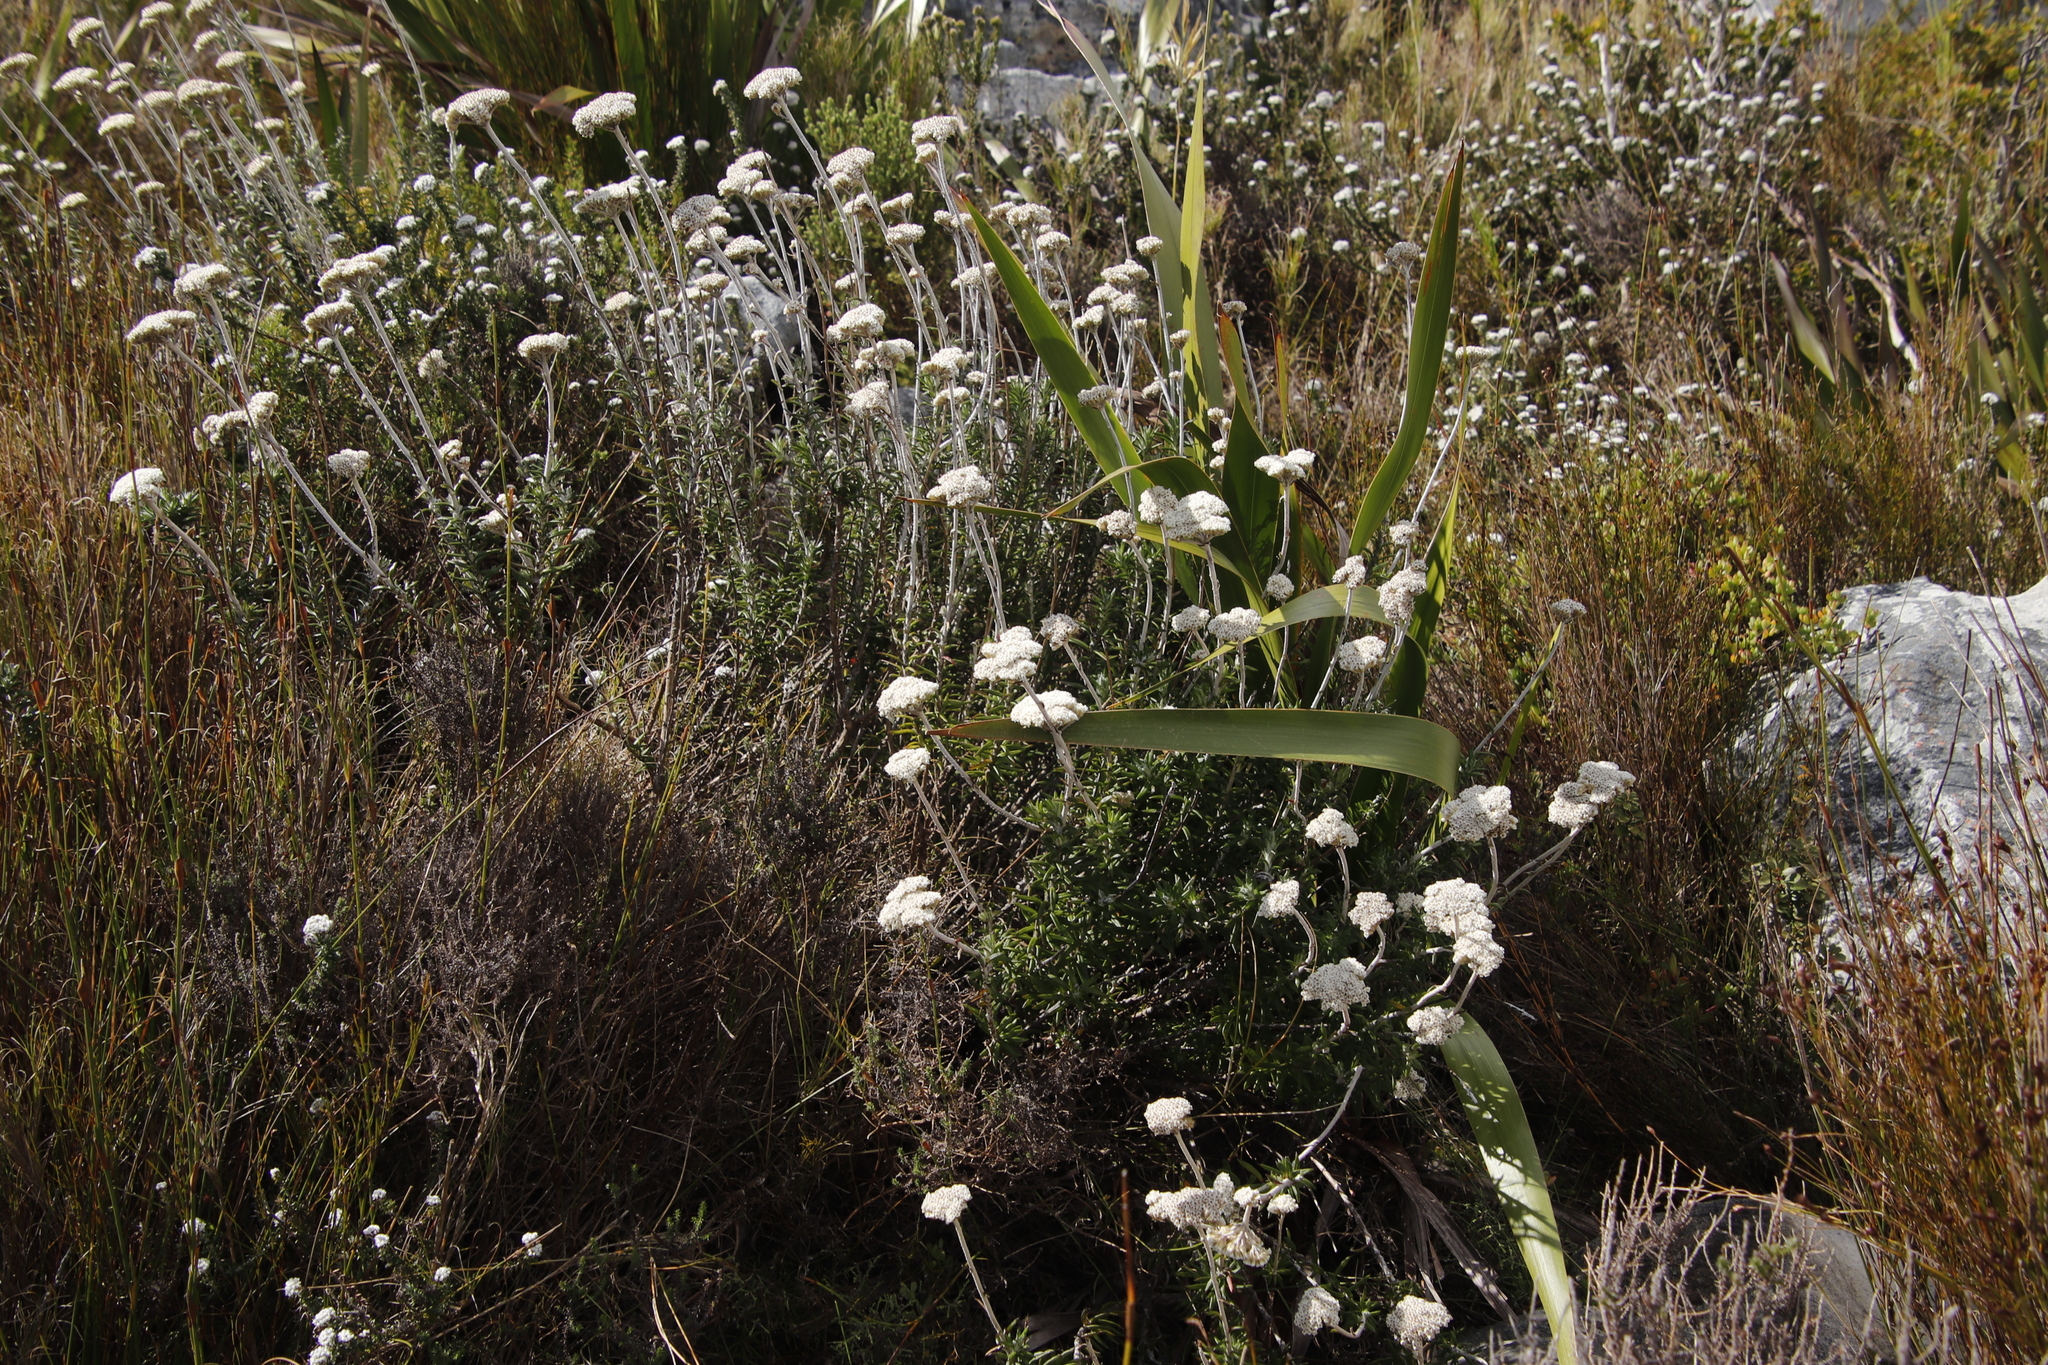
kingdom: Plantae
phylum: Tracheophyta
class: Magnoliopsida
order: Asterales
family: Asteraceae
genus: Anaxeton
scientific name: Anaxeton arborescens
